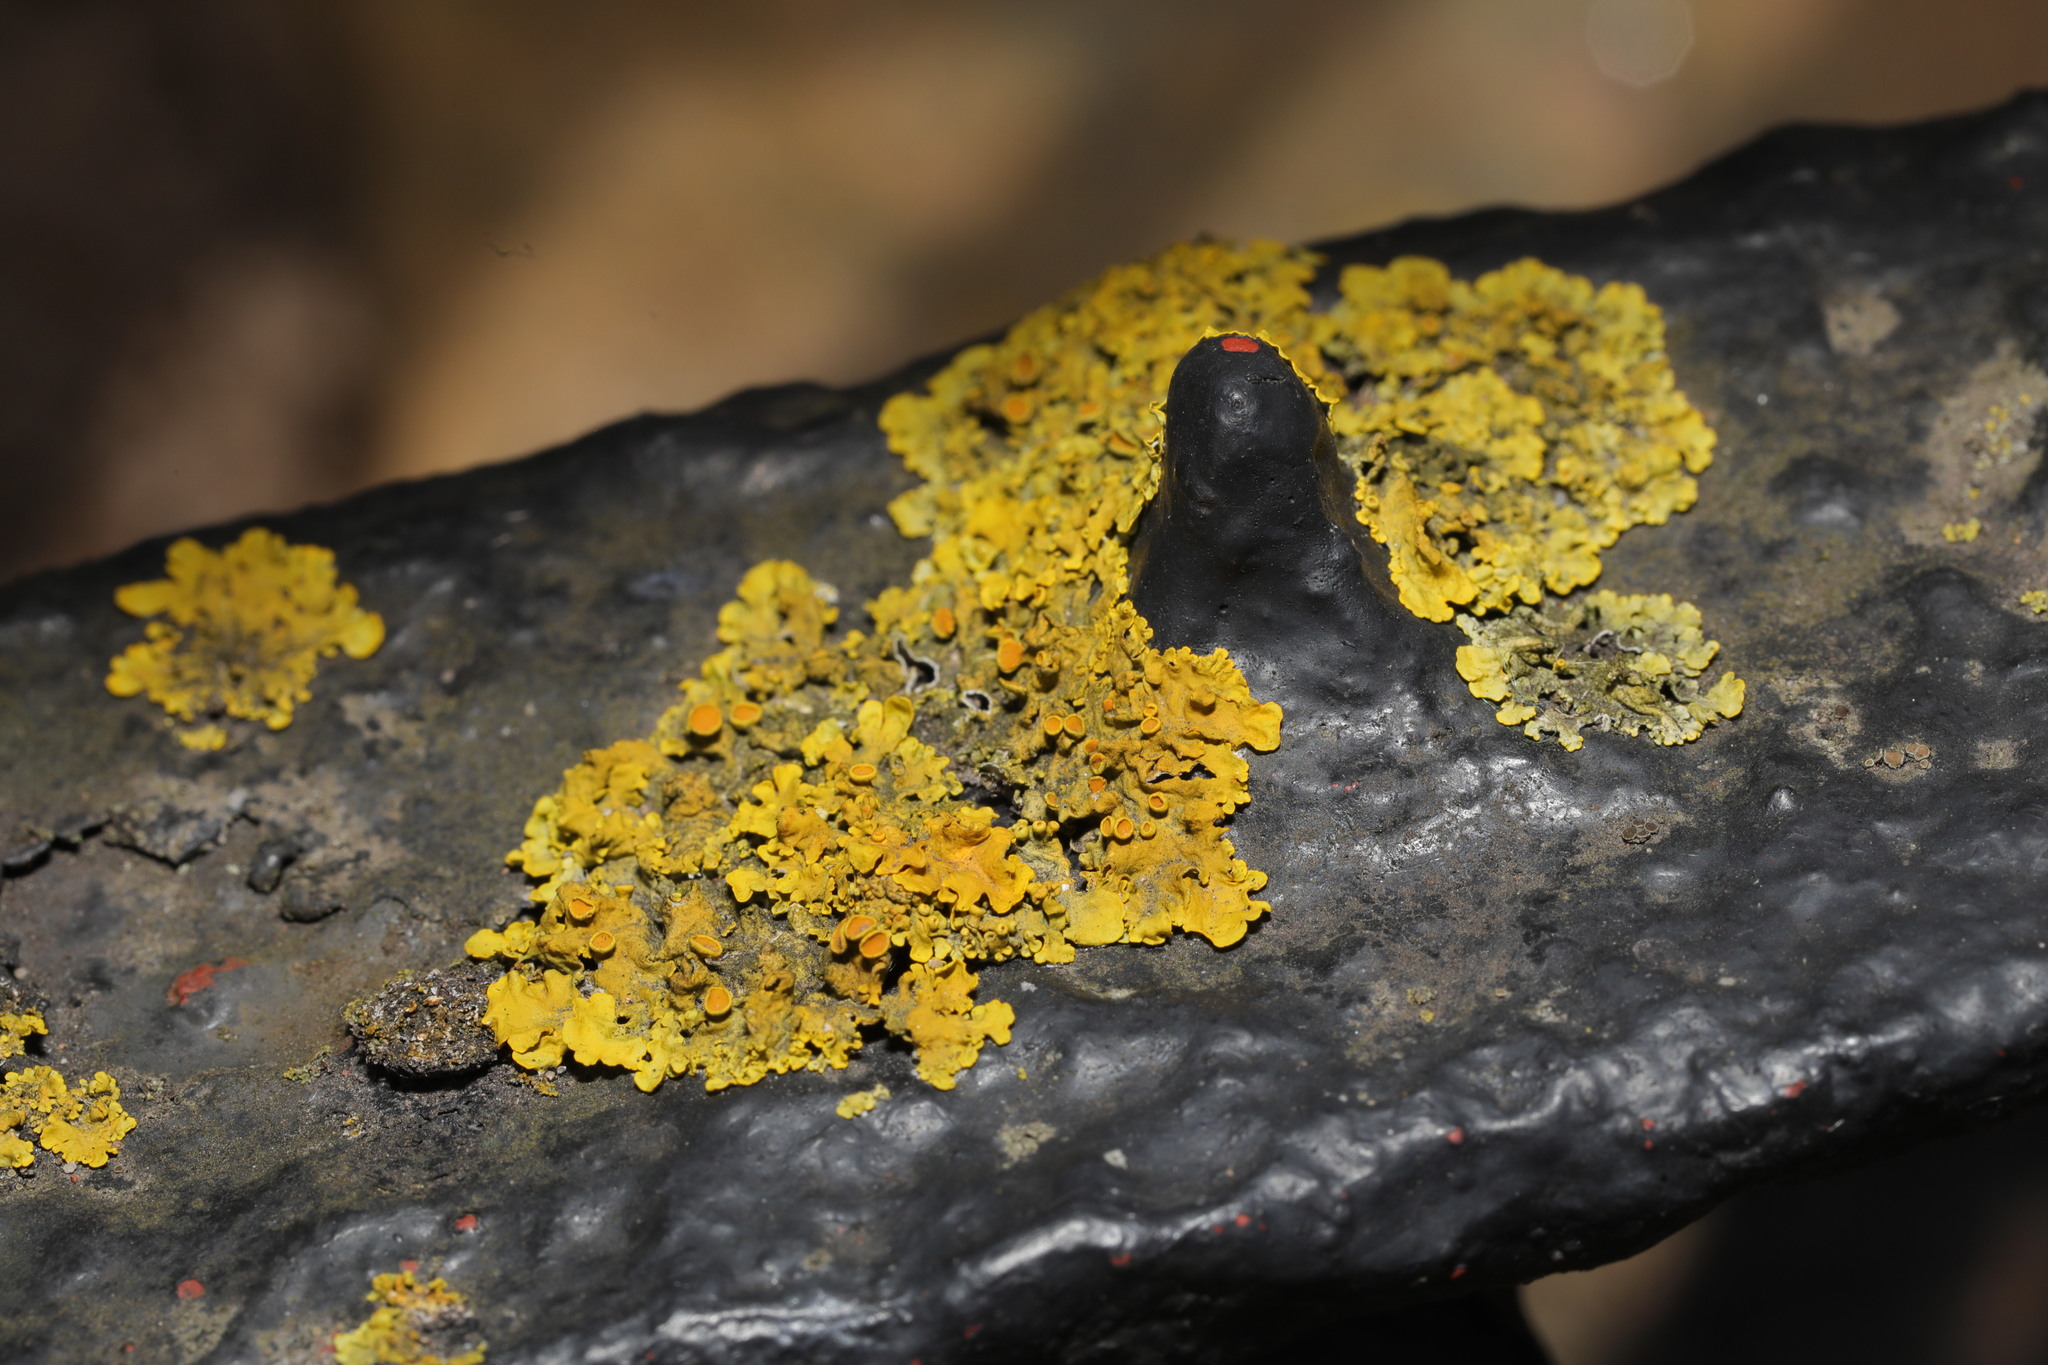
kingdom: Fungi
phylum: Ascomycota
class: Lecanoromycetes
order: Teloschistales
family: Teloschistaceae
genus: Xanthoria
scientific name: Xanthoria parietina
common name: Common orange lichen
